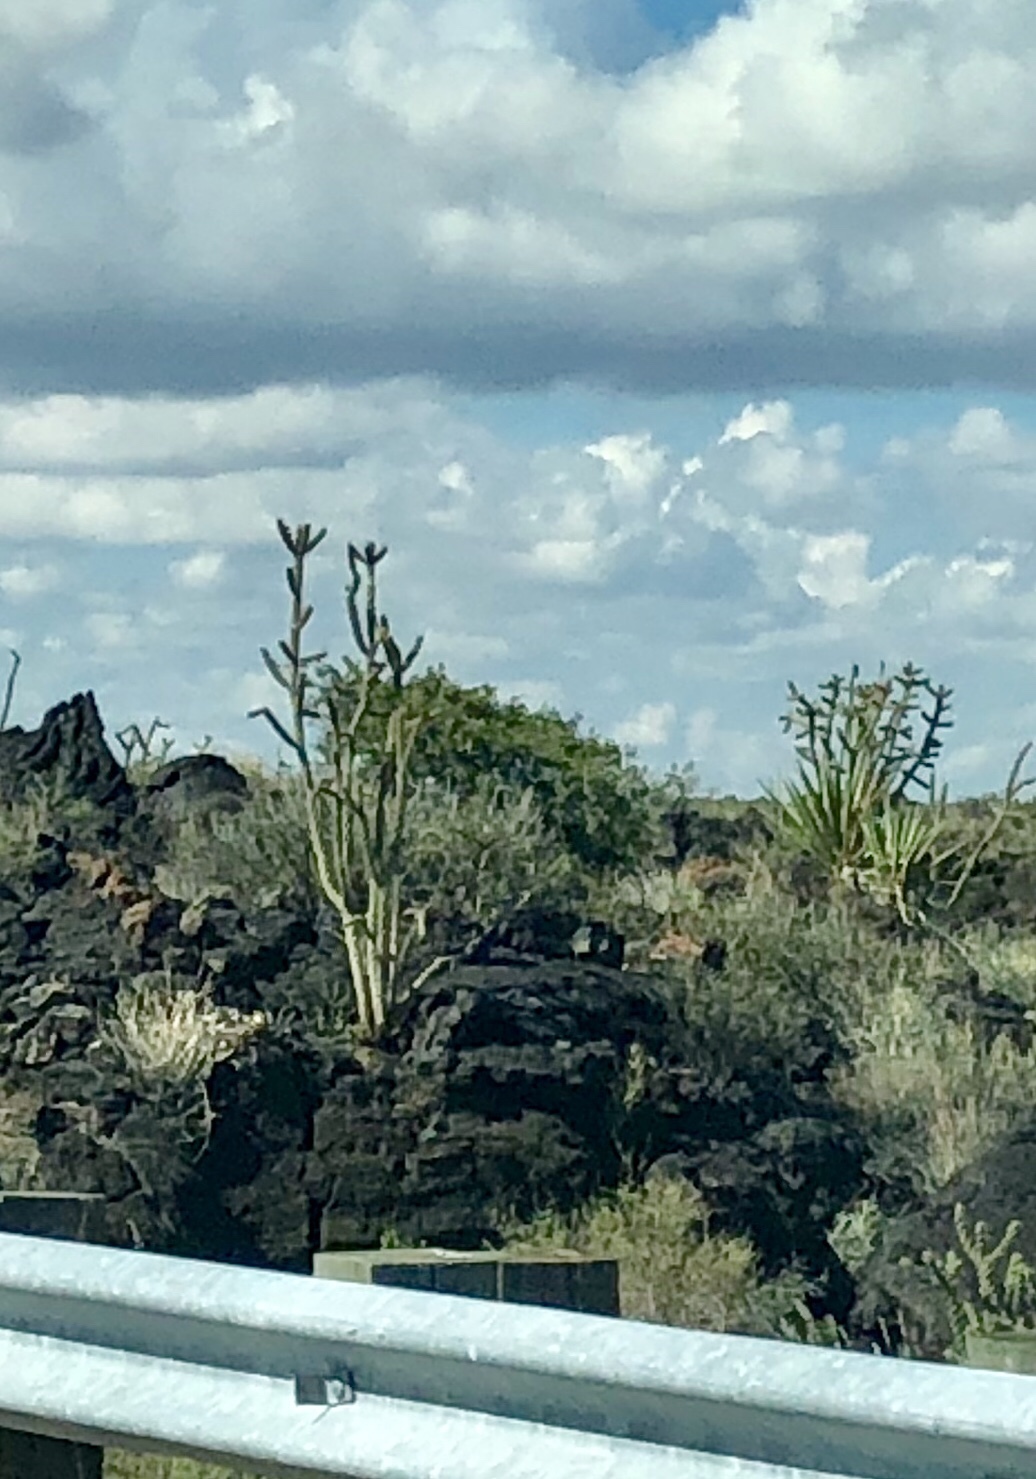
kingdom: Plantae
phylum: Tracheophyta
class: Magnoliopsida
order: Caryophyllales
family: Cactaceae
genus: Cylindropuntia
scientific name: Cylindropuntia imbricata
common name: Candelabrum cactus
